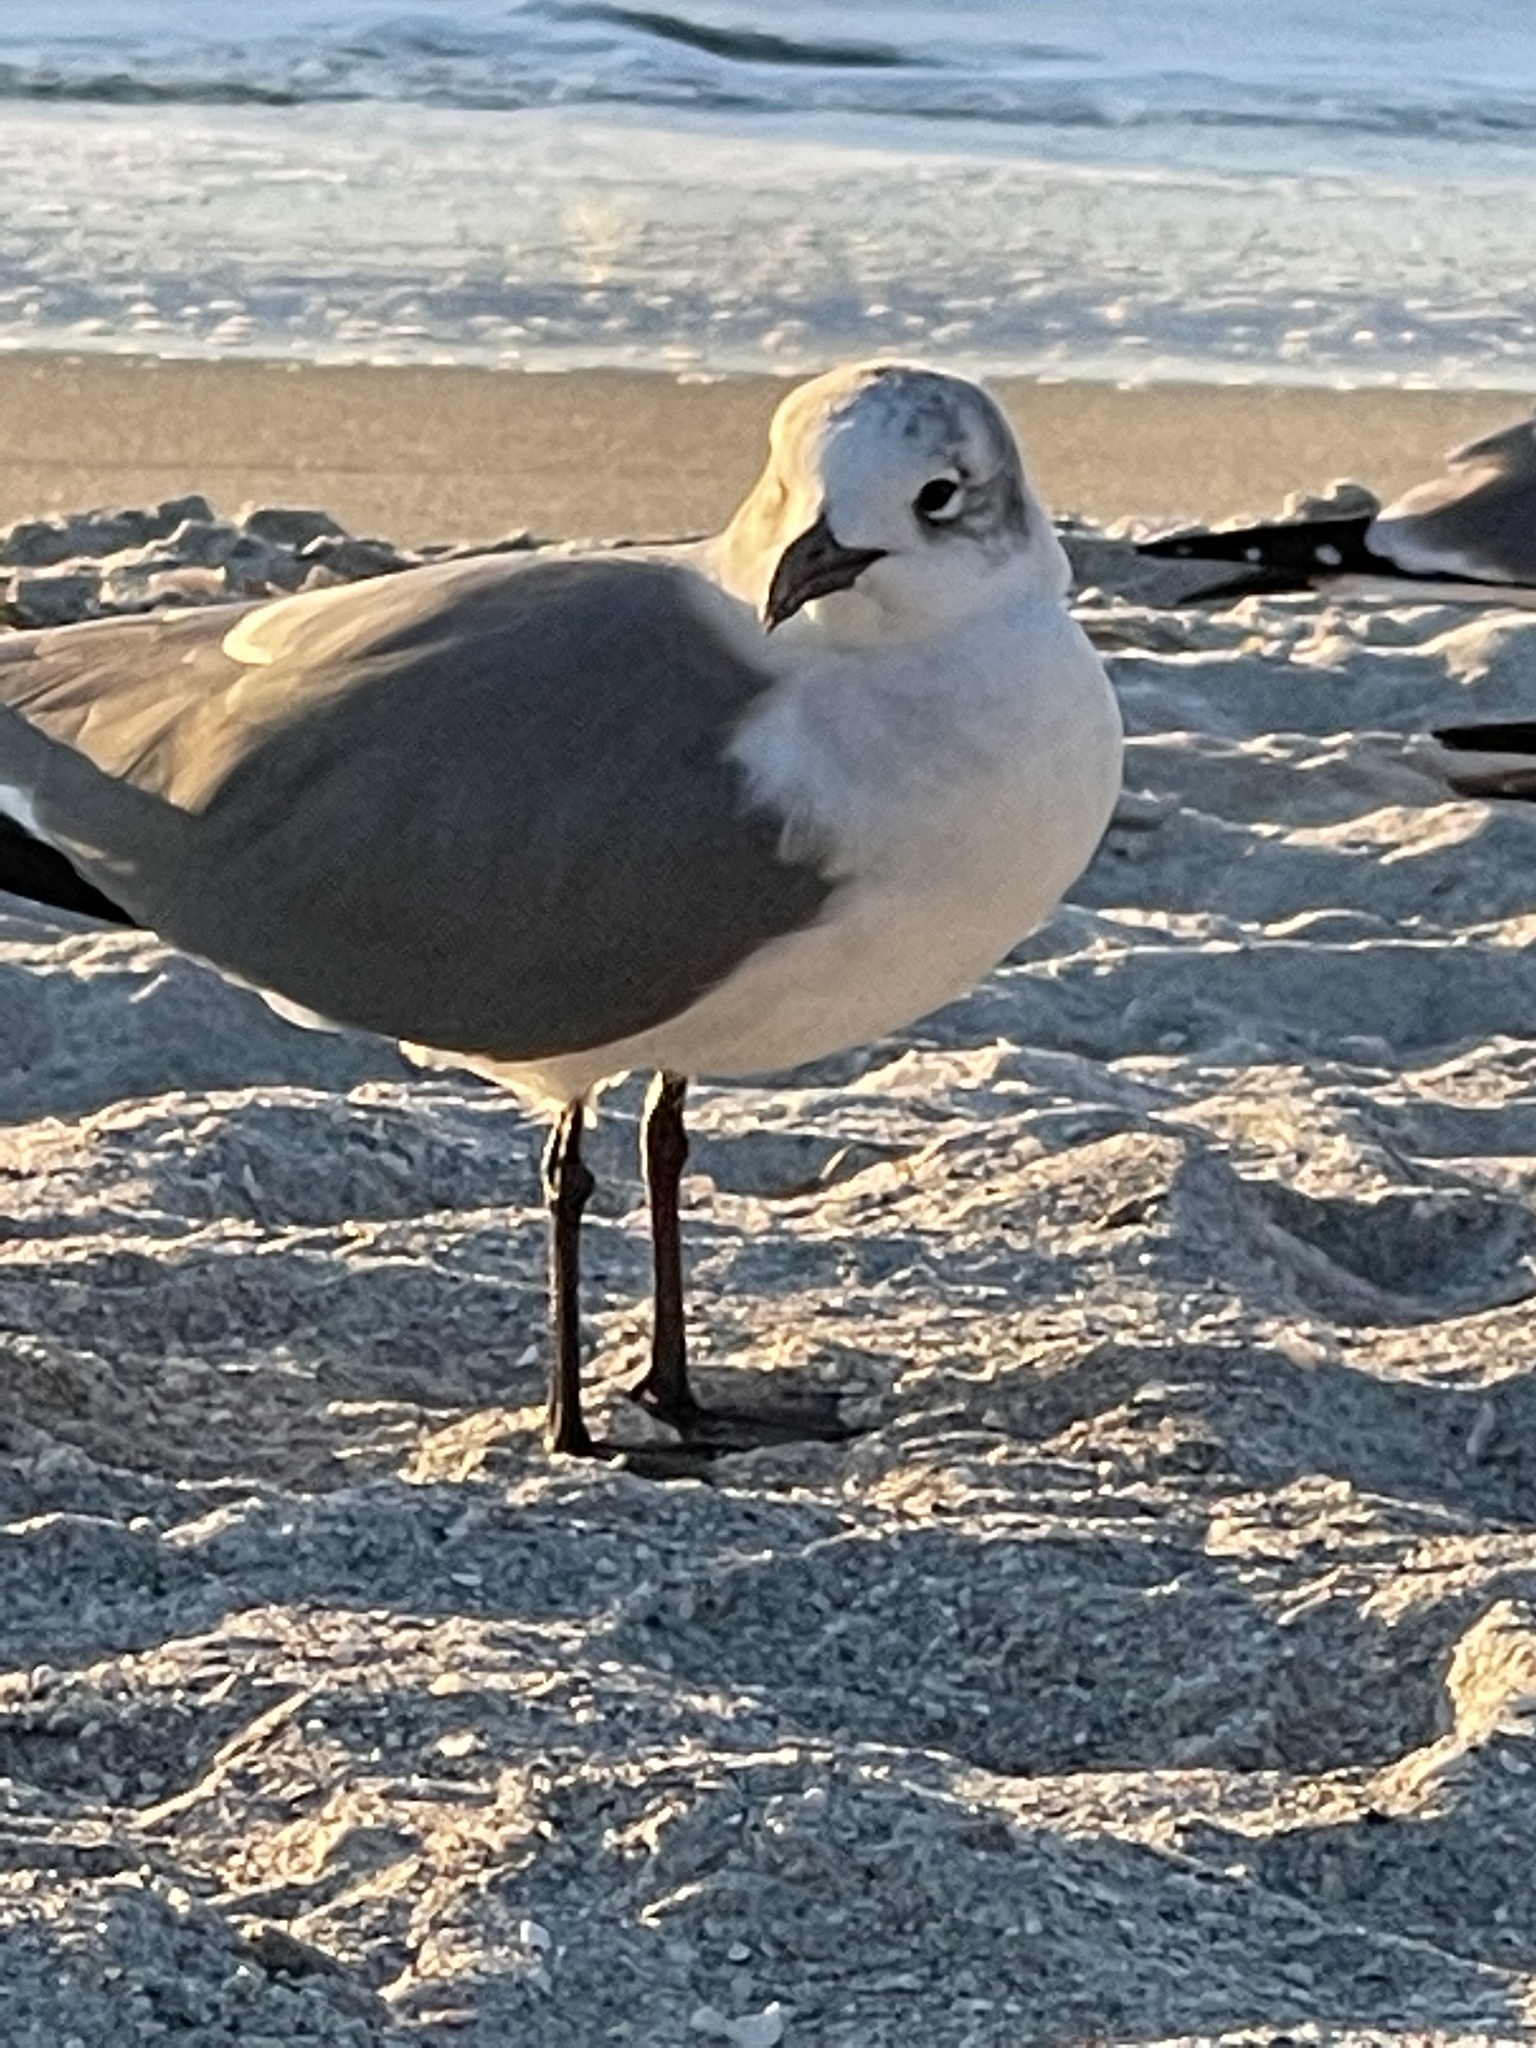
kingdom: Animalia
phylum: Chordata
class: Aves
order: Charadriiformes
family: Laridae
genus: Leucophaeus
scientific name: Leucophaeus atricilla
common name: Laughing gull
